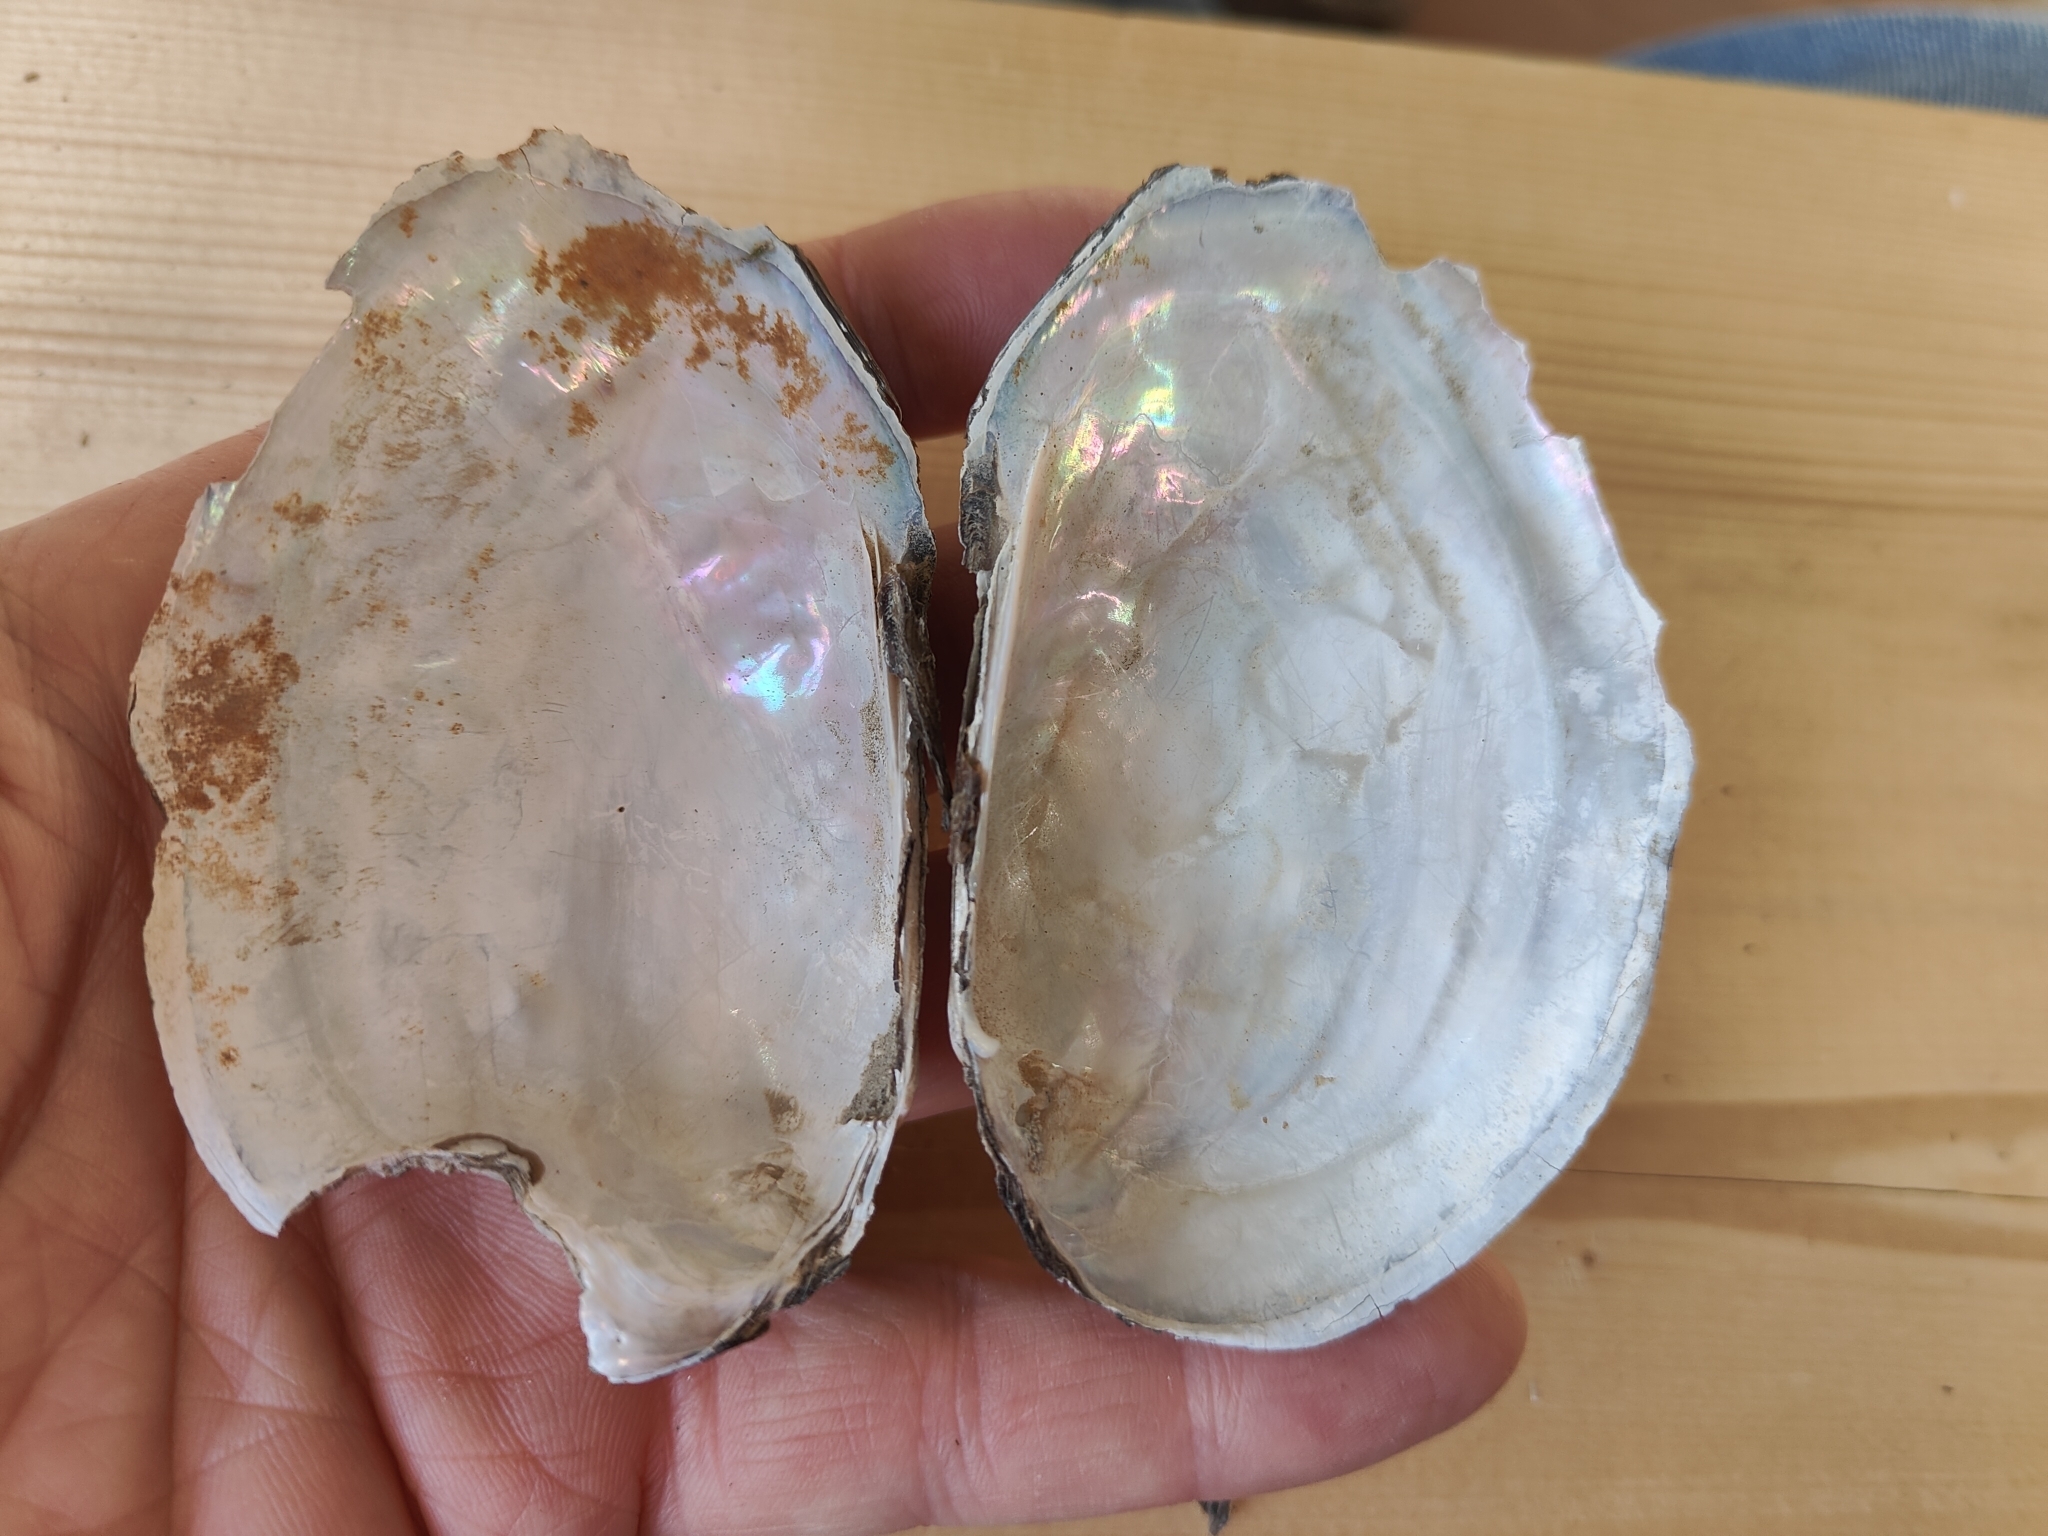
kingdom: Animalia
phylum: Mollusca
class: Bivalvia
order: Unionida
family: Unionidae
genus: Potamilus
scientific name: Potamilus fragilis
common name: Fragile papershell
